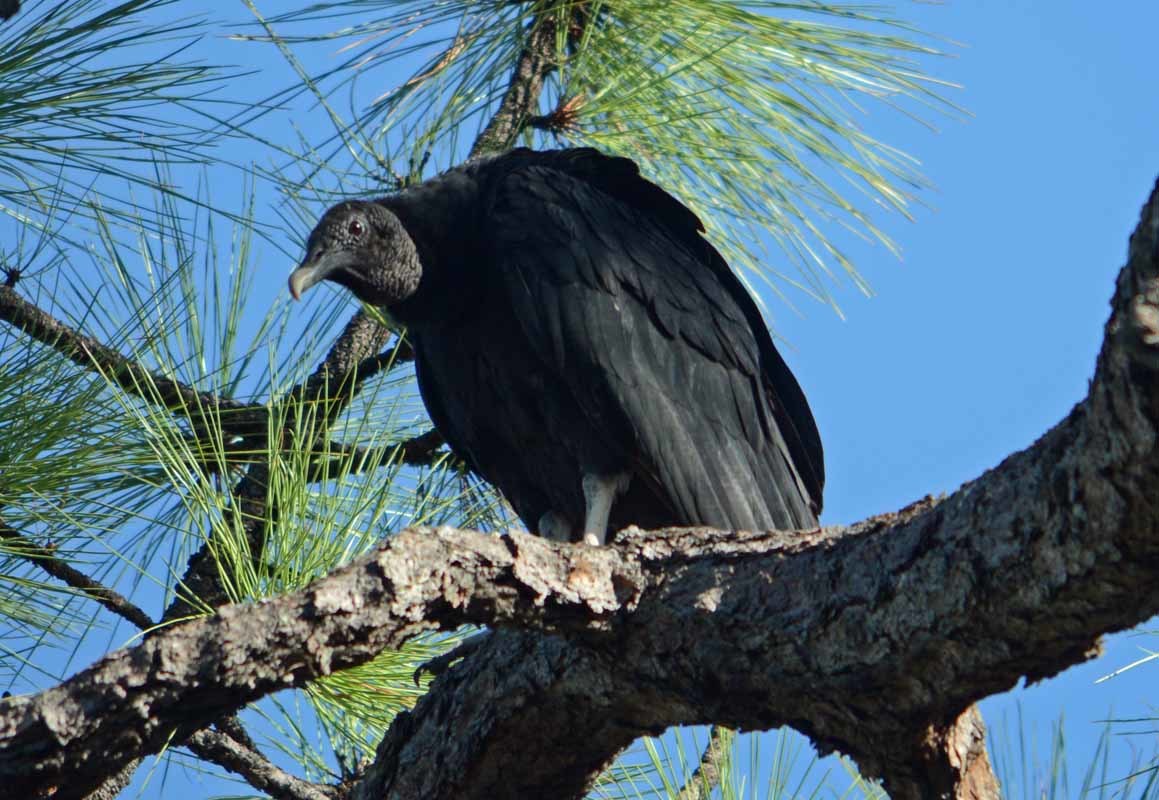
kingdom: Animalia
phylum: Chordata
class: Aves
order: Accipitriformes
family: Cathartidae
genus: Coragyps
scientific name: Coragyps atratus
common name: Black vulture
